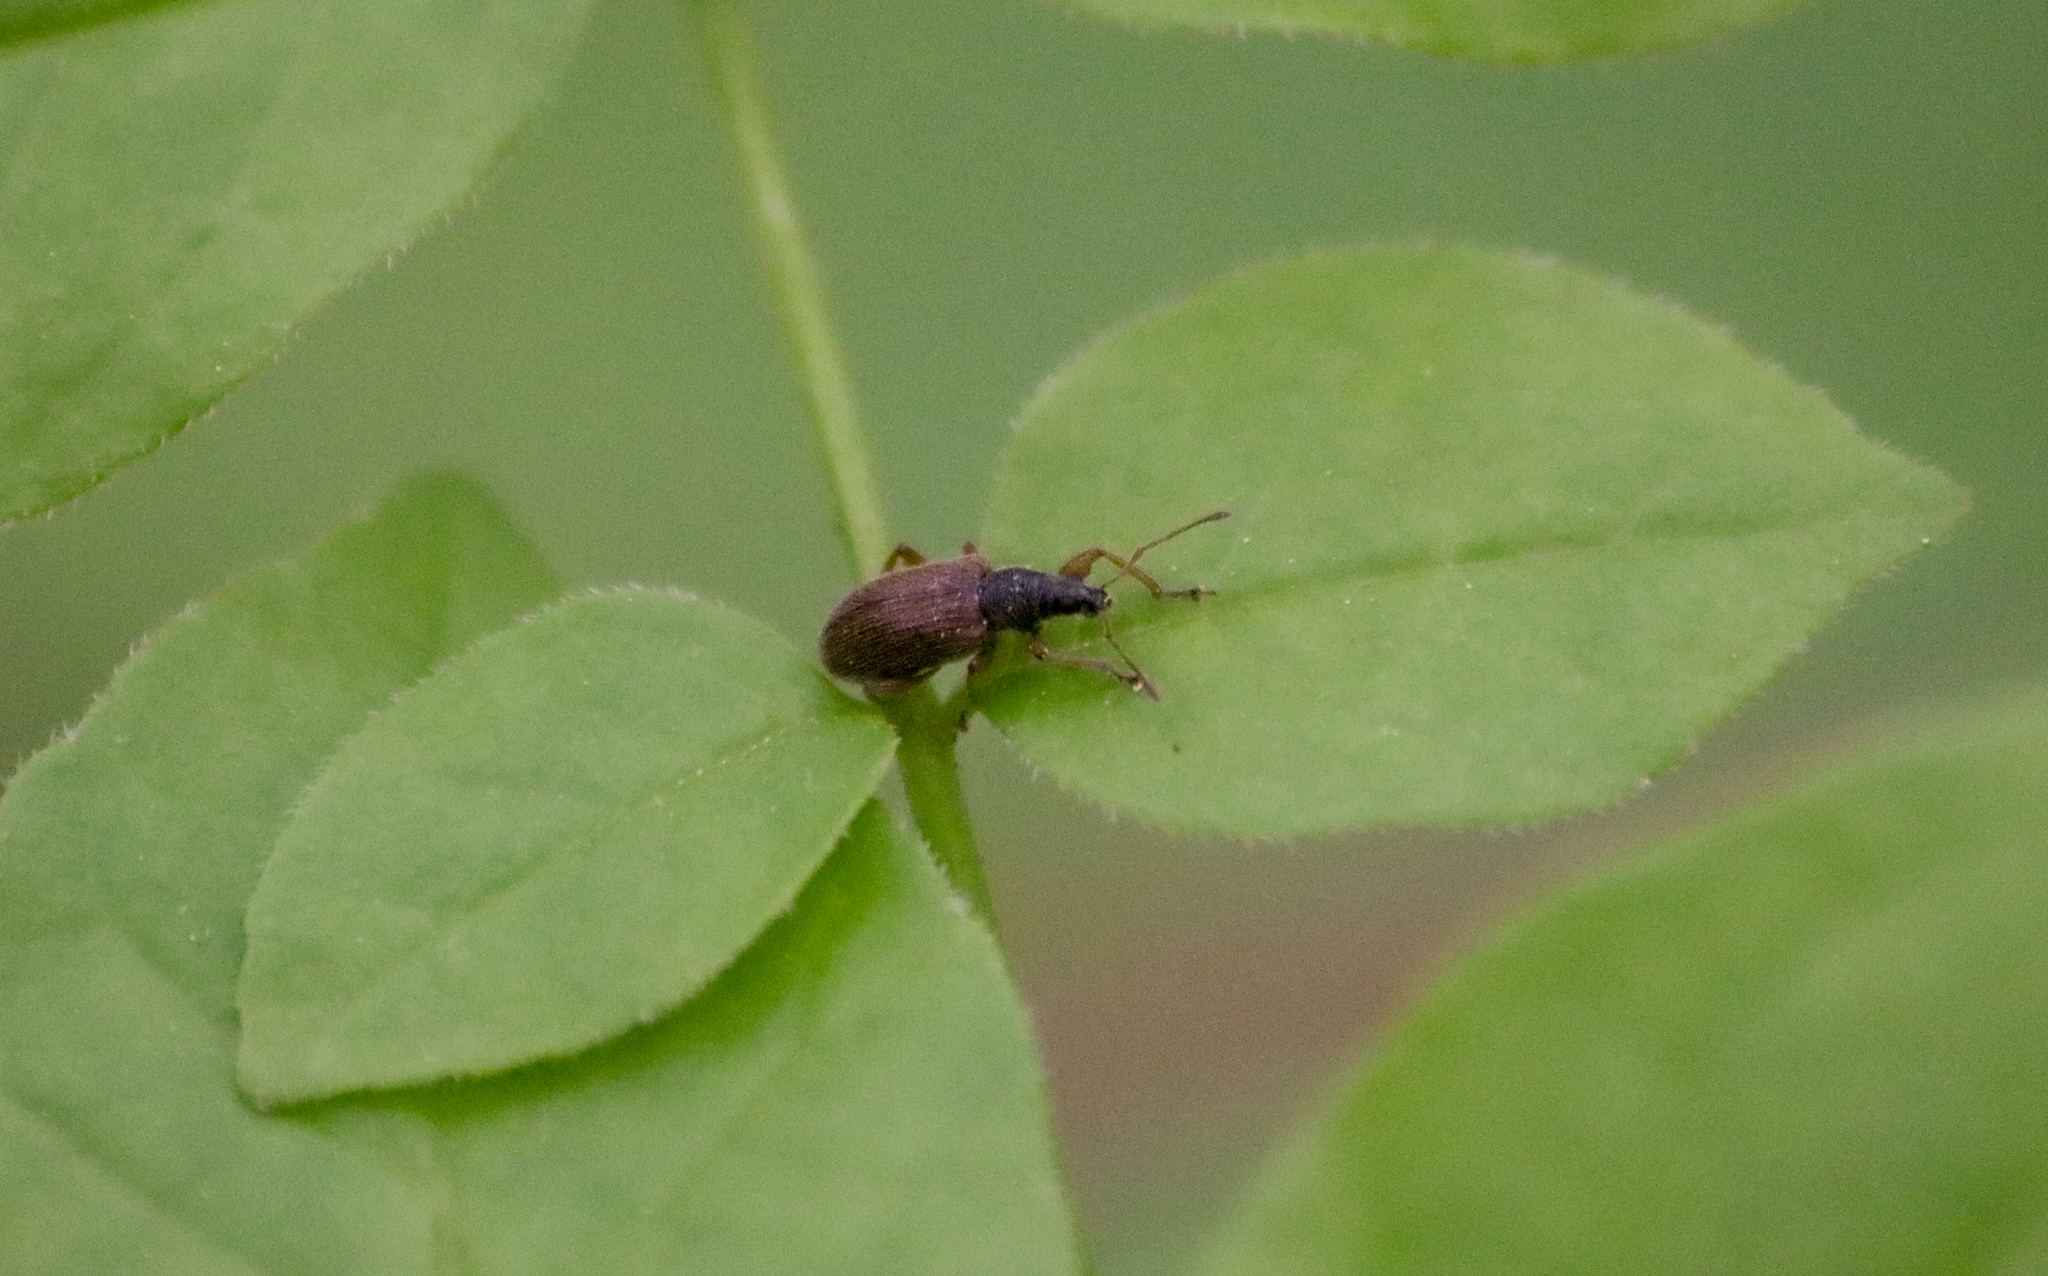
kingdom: Animalia
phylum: Arthropoda
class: Insecta
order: Coleoptera
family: Curculionidae
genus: Phyllobius
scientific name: Phyllobius oblongus
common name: Brown leaf weevil
